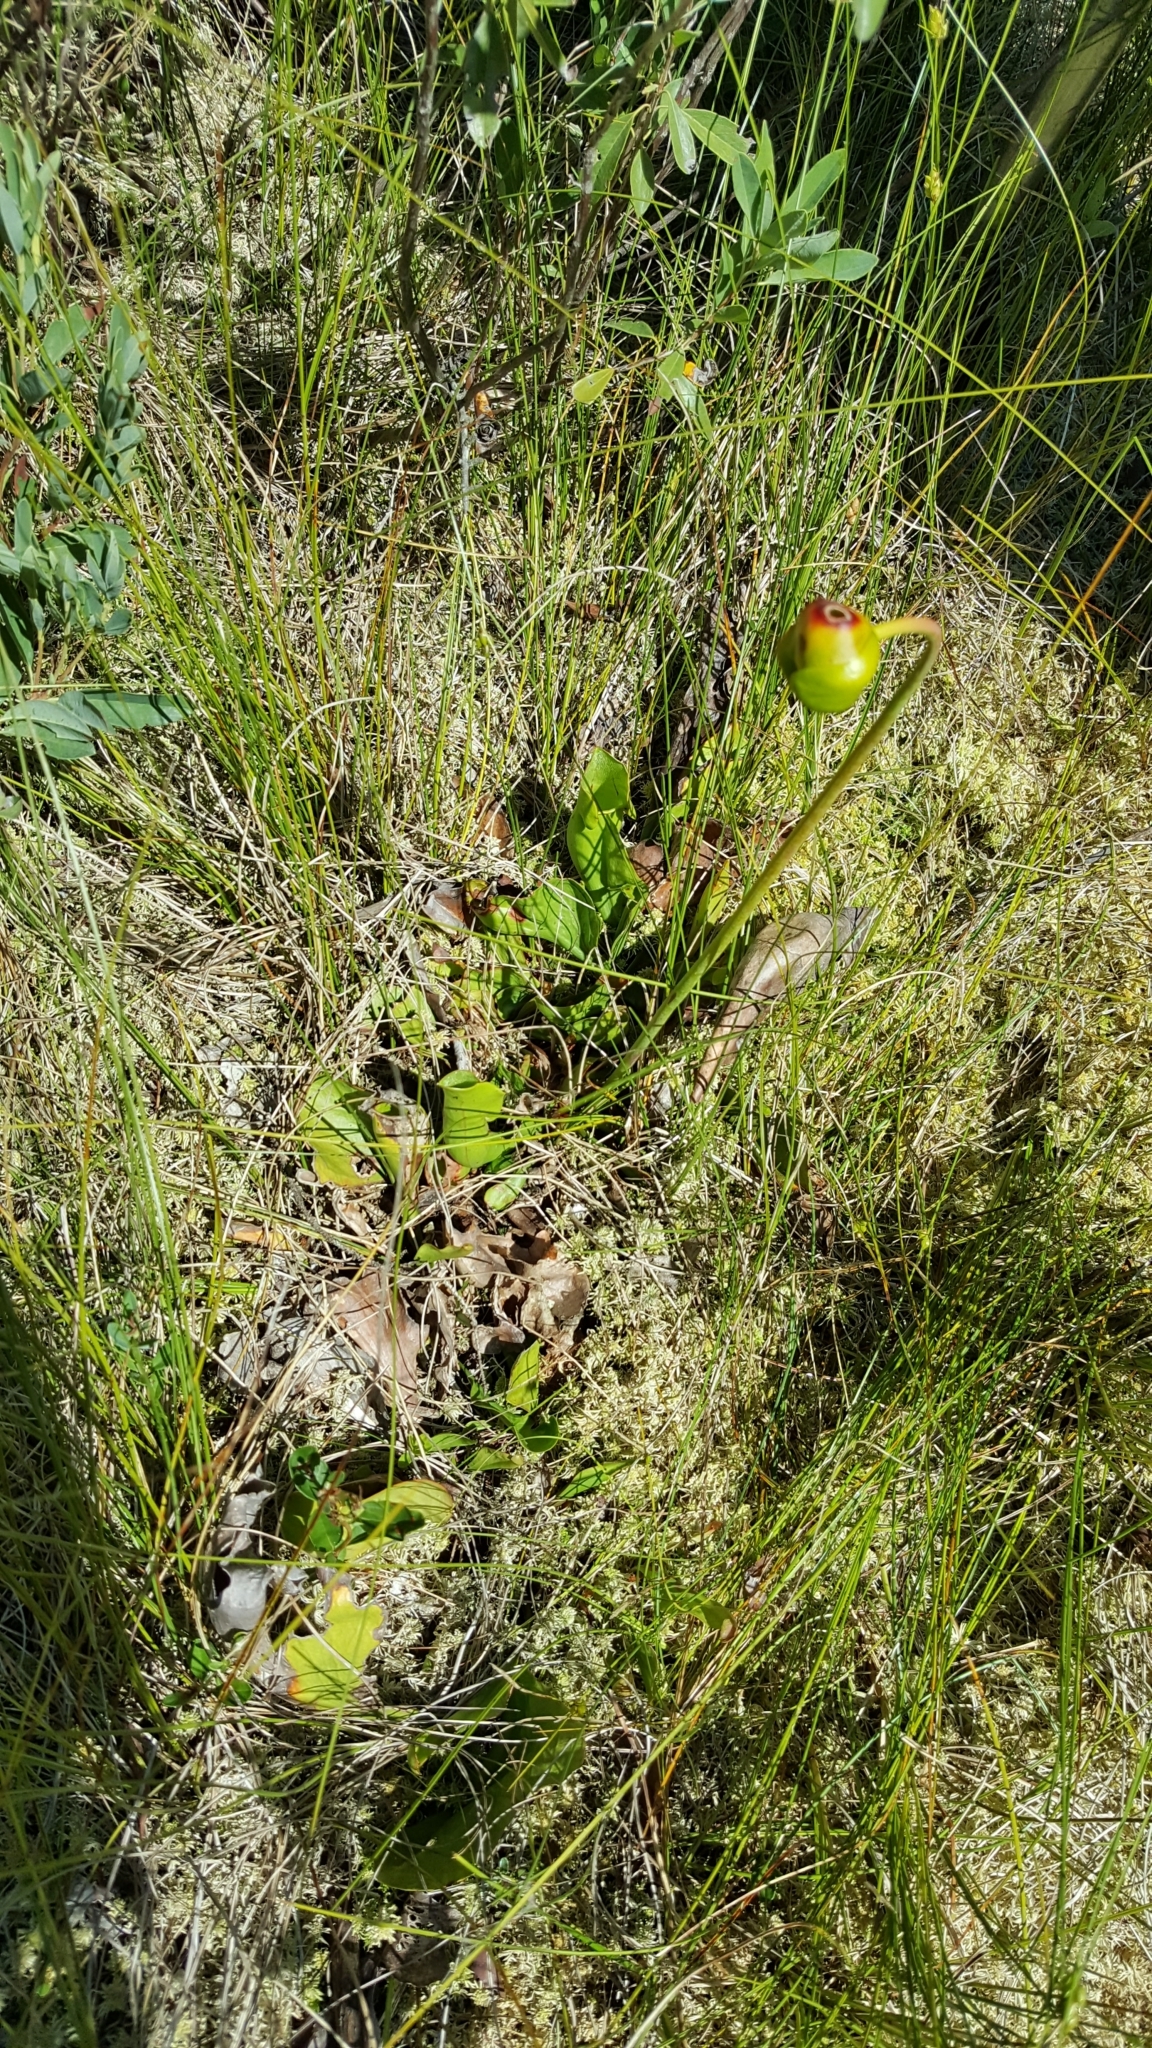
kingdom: Plantae
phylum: Tracheophyta
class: Magnoliopsida
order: Ericales
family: Sarraceniaceae
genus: Sarracenia
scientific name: Sarracenia purpurea
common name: Pitcherplant
